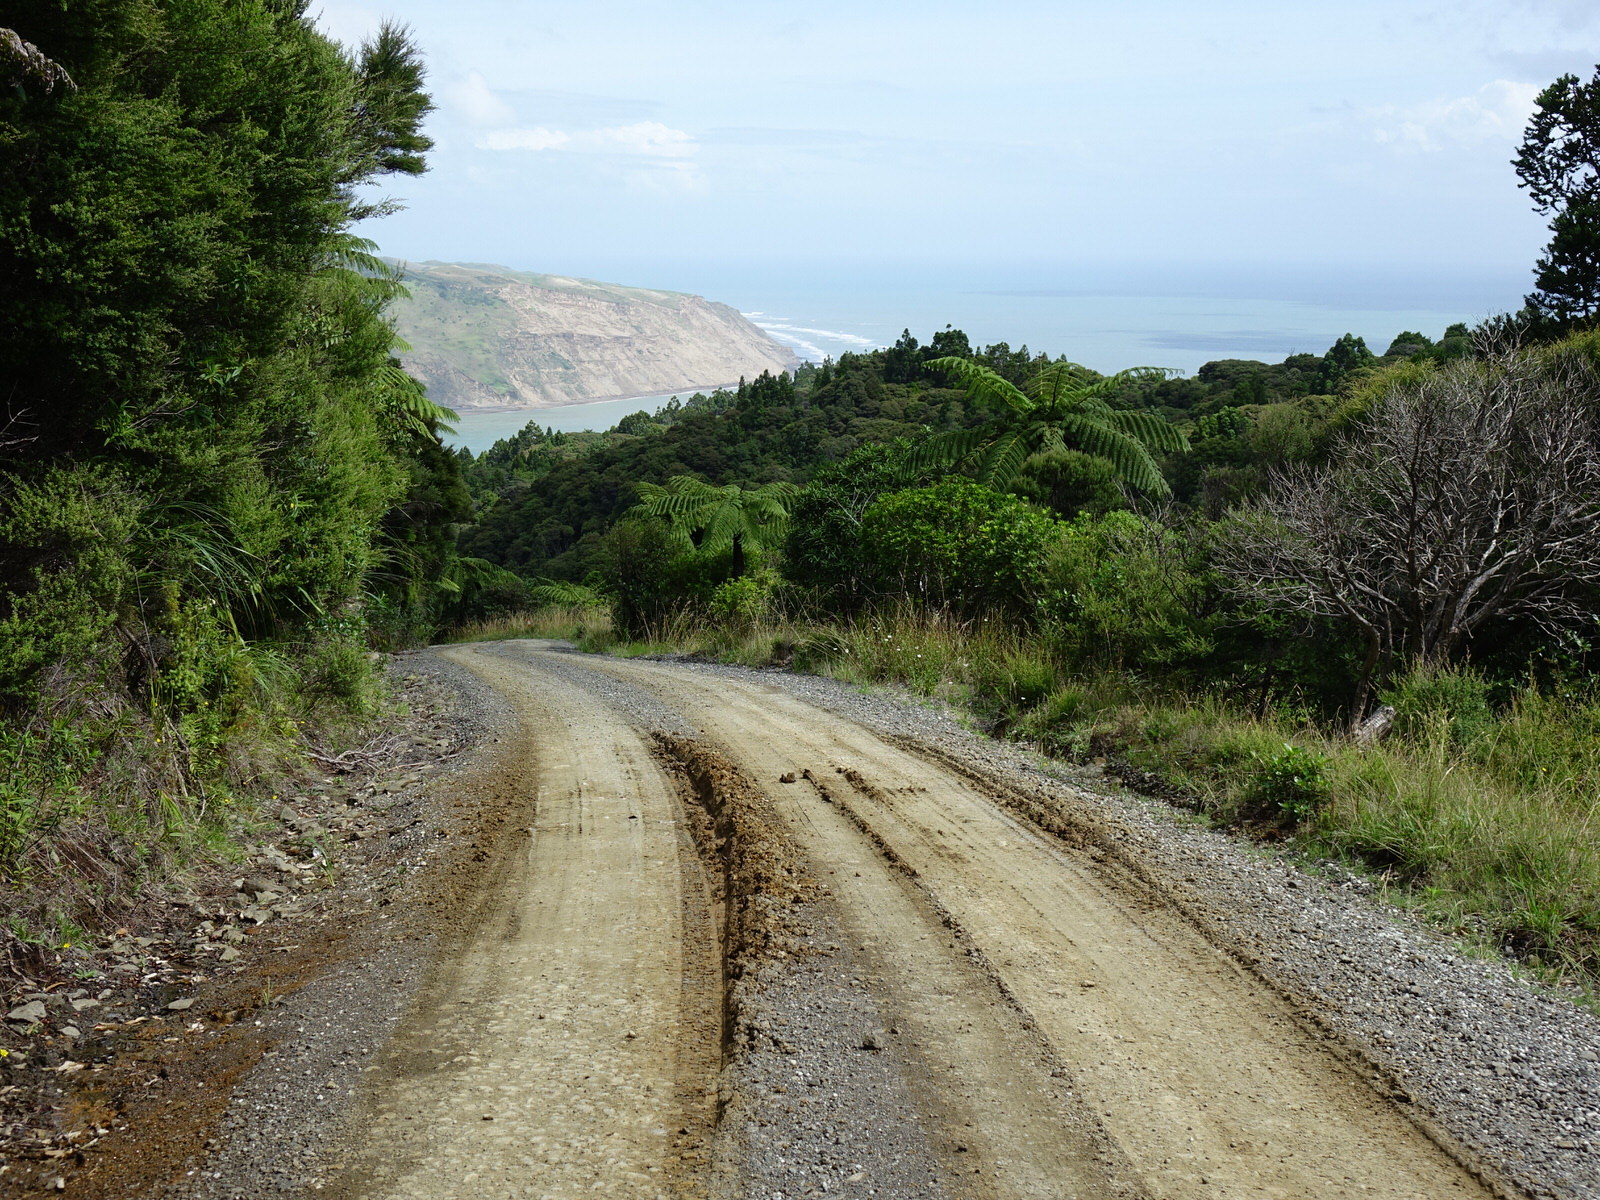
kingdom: Animalia
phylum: Arthropoda
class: Insecta
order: Lepidoptera
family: Nymphalidae
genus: Vanessa
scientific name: Vanessa itea
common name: Yellow admiral
